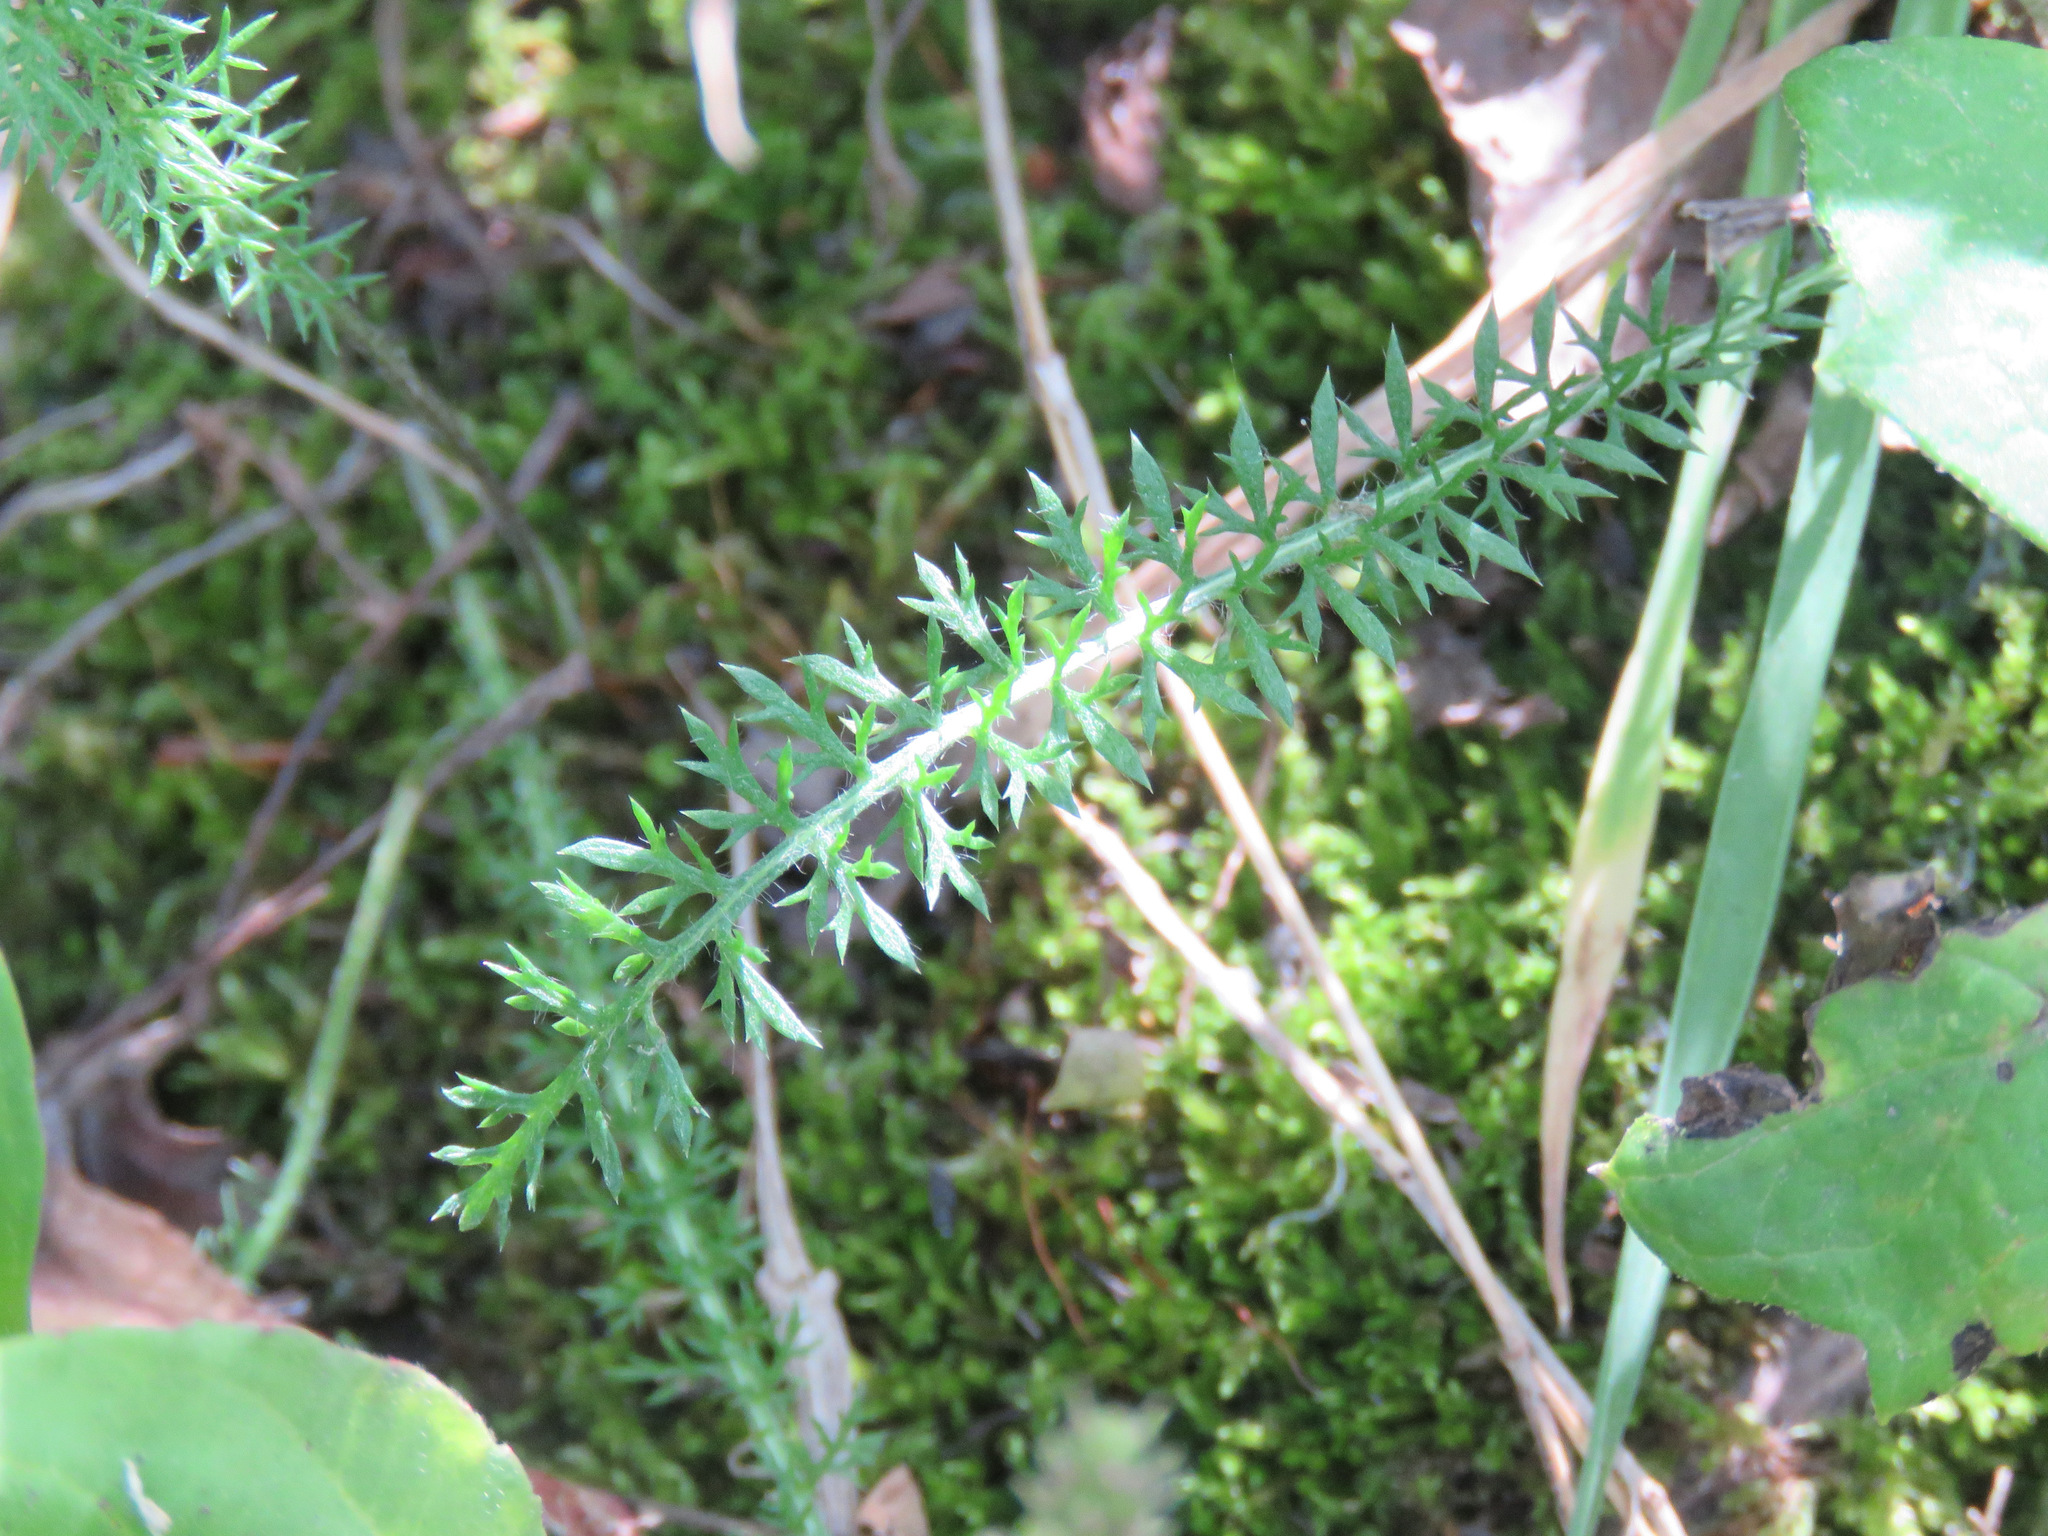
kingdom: Plantae
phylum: Tracheophyta
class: Magnoliopsida
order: Asterales
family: Asteraceae
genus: Achillea
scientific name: Achillea millefolium
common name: Yarrow
